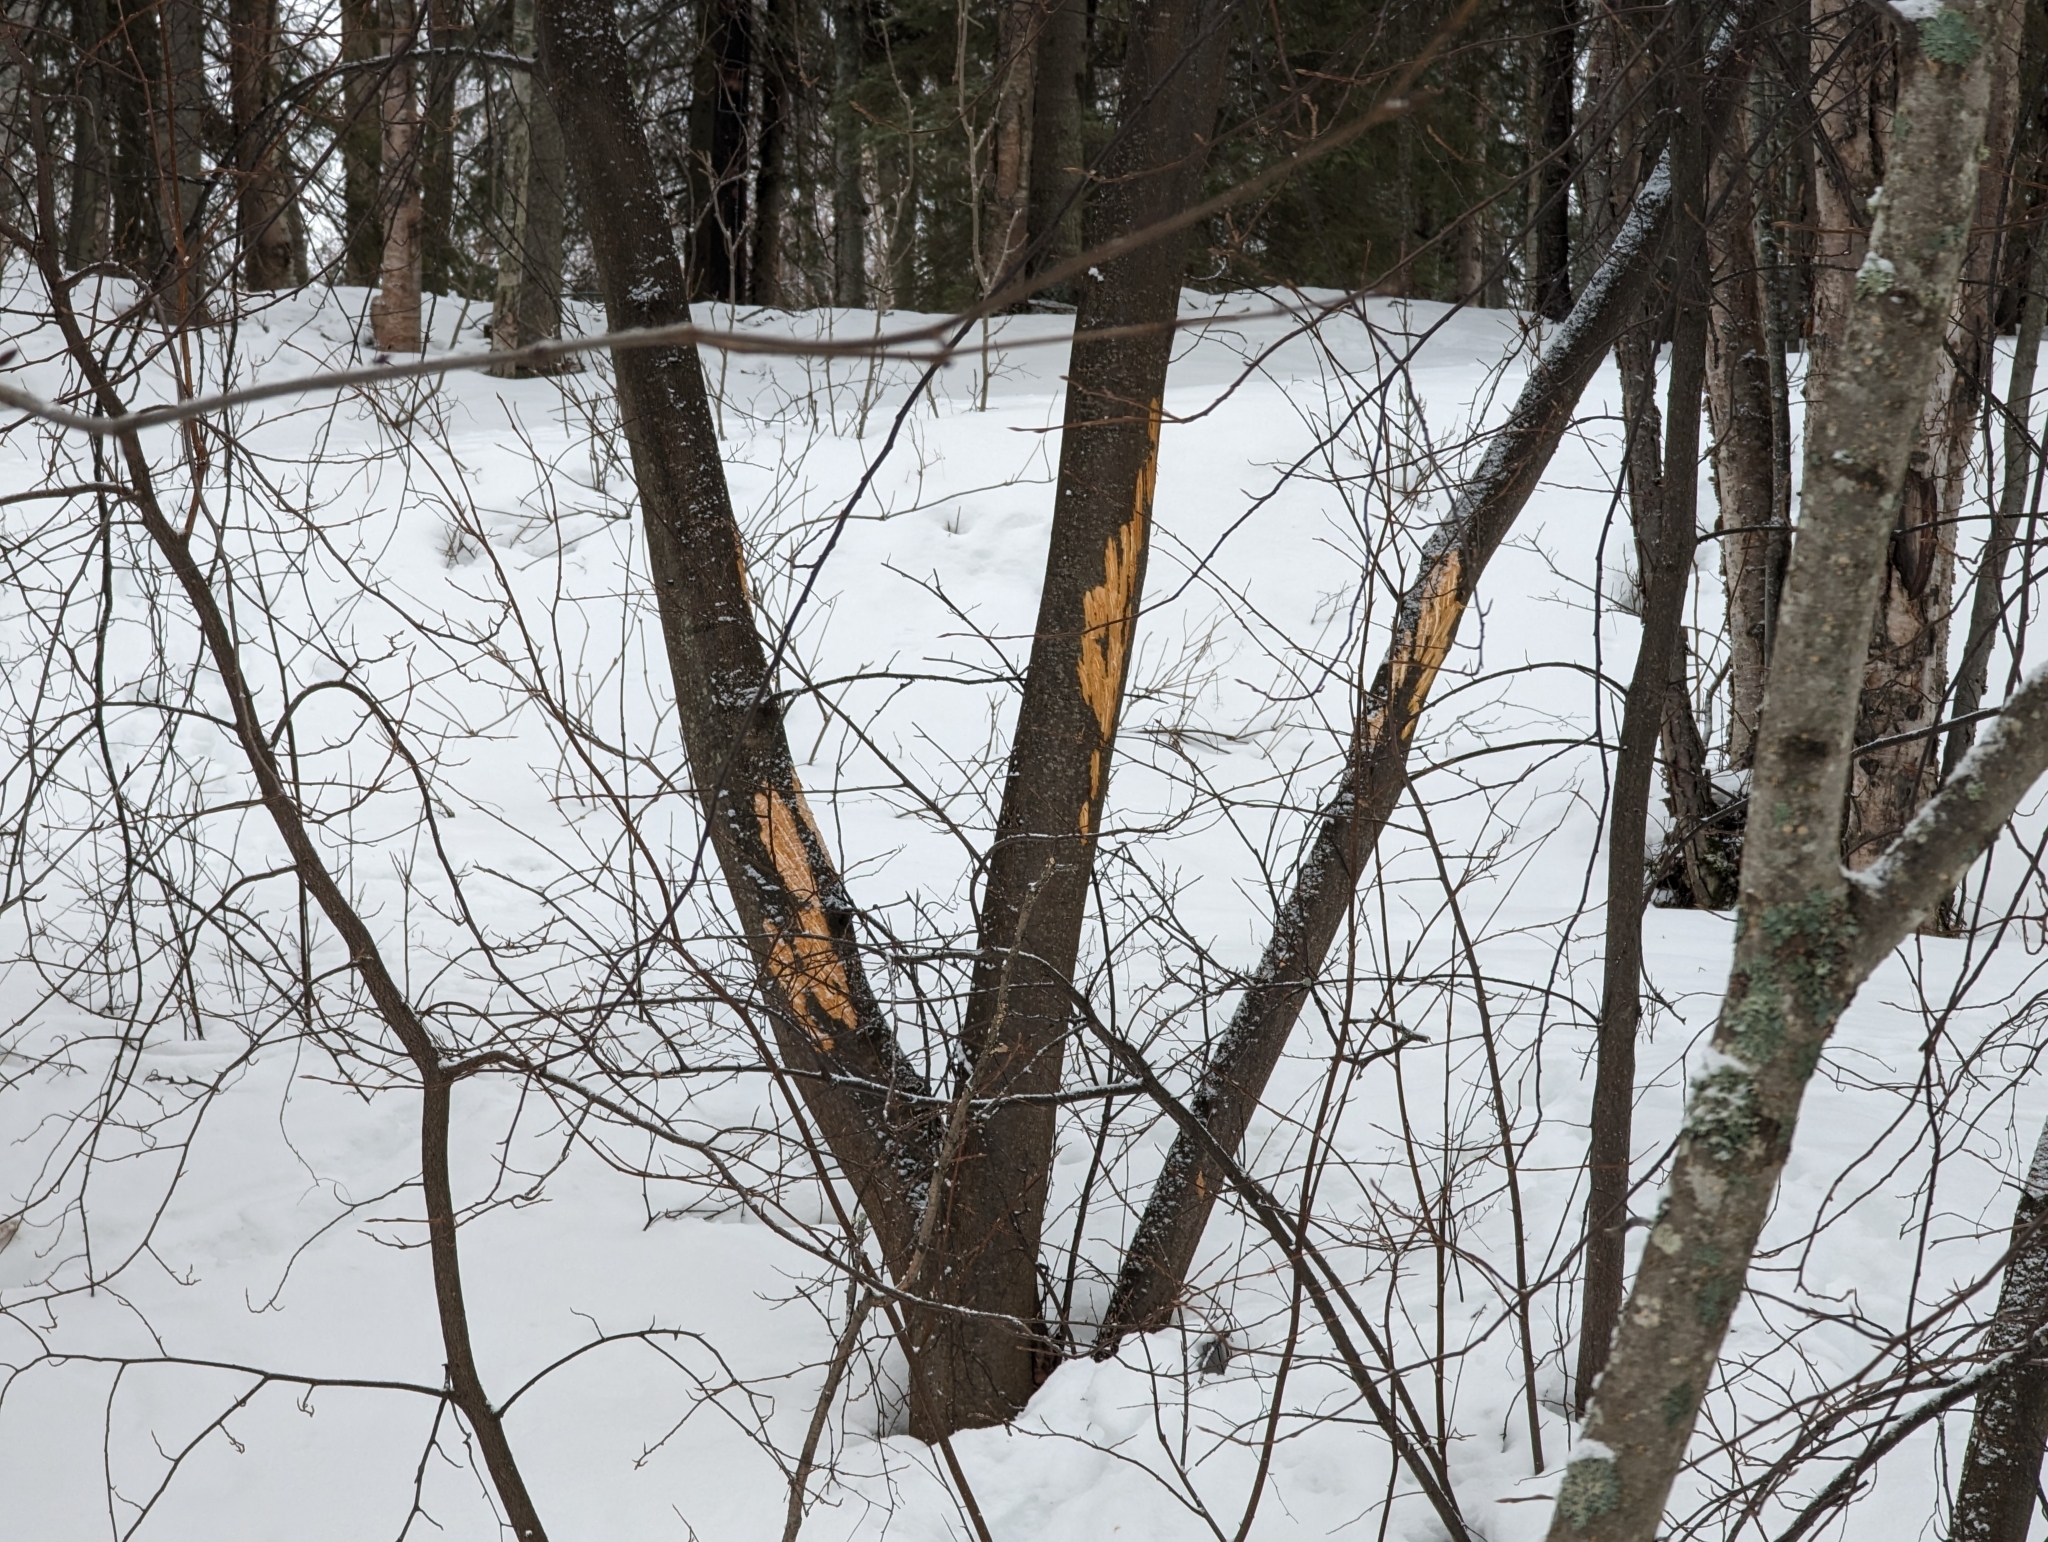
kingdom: Animalia
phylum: Chordata
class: Mammalia
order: Artiodactyla
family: Cervidae
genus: Alces
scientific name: Alces alces
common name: Moose
